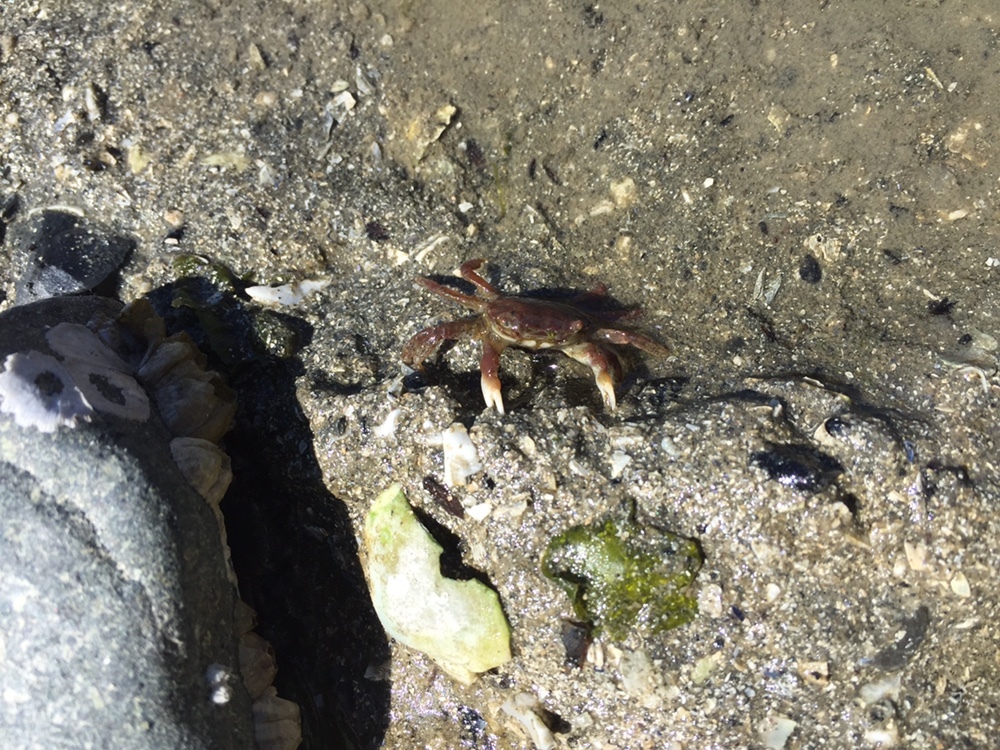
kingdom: Animalia
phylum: Arthropoda
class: Malacostraca
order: Decapoda
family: Varunidae
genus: Hemigrapsus
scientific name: Hemigrapsus oregonensis
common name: Yellow shore crab
